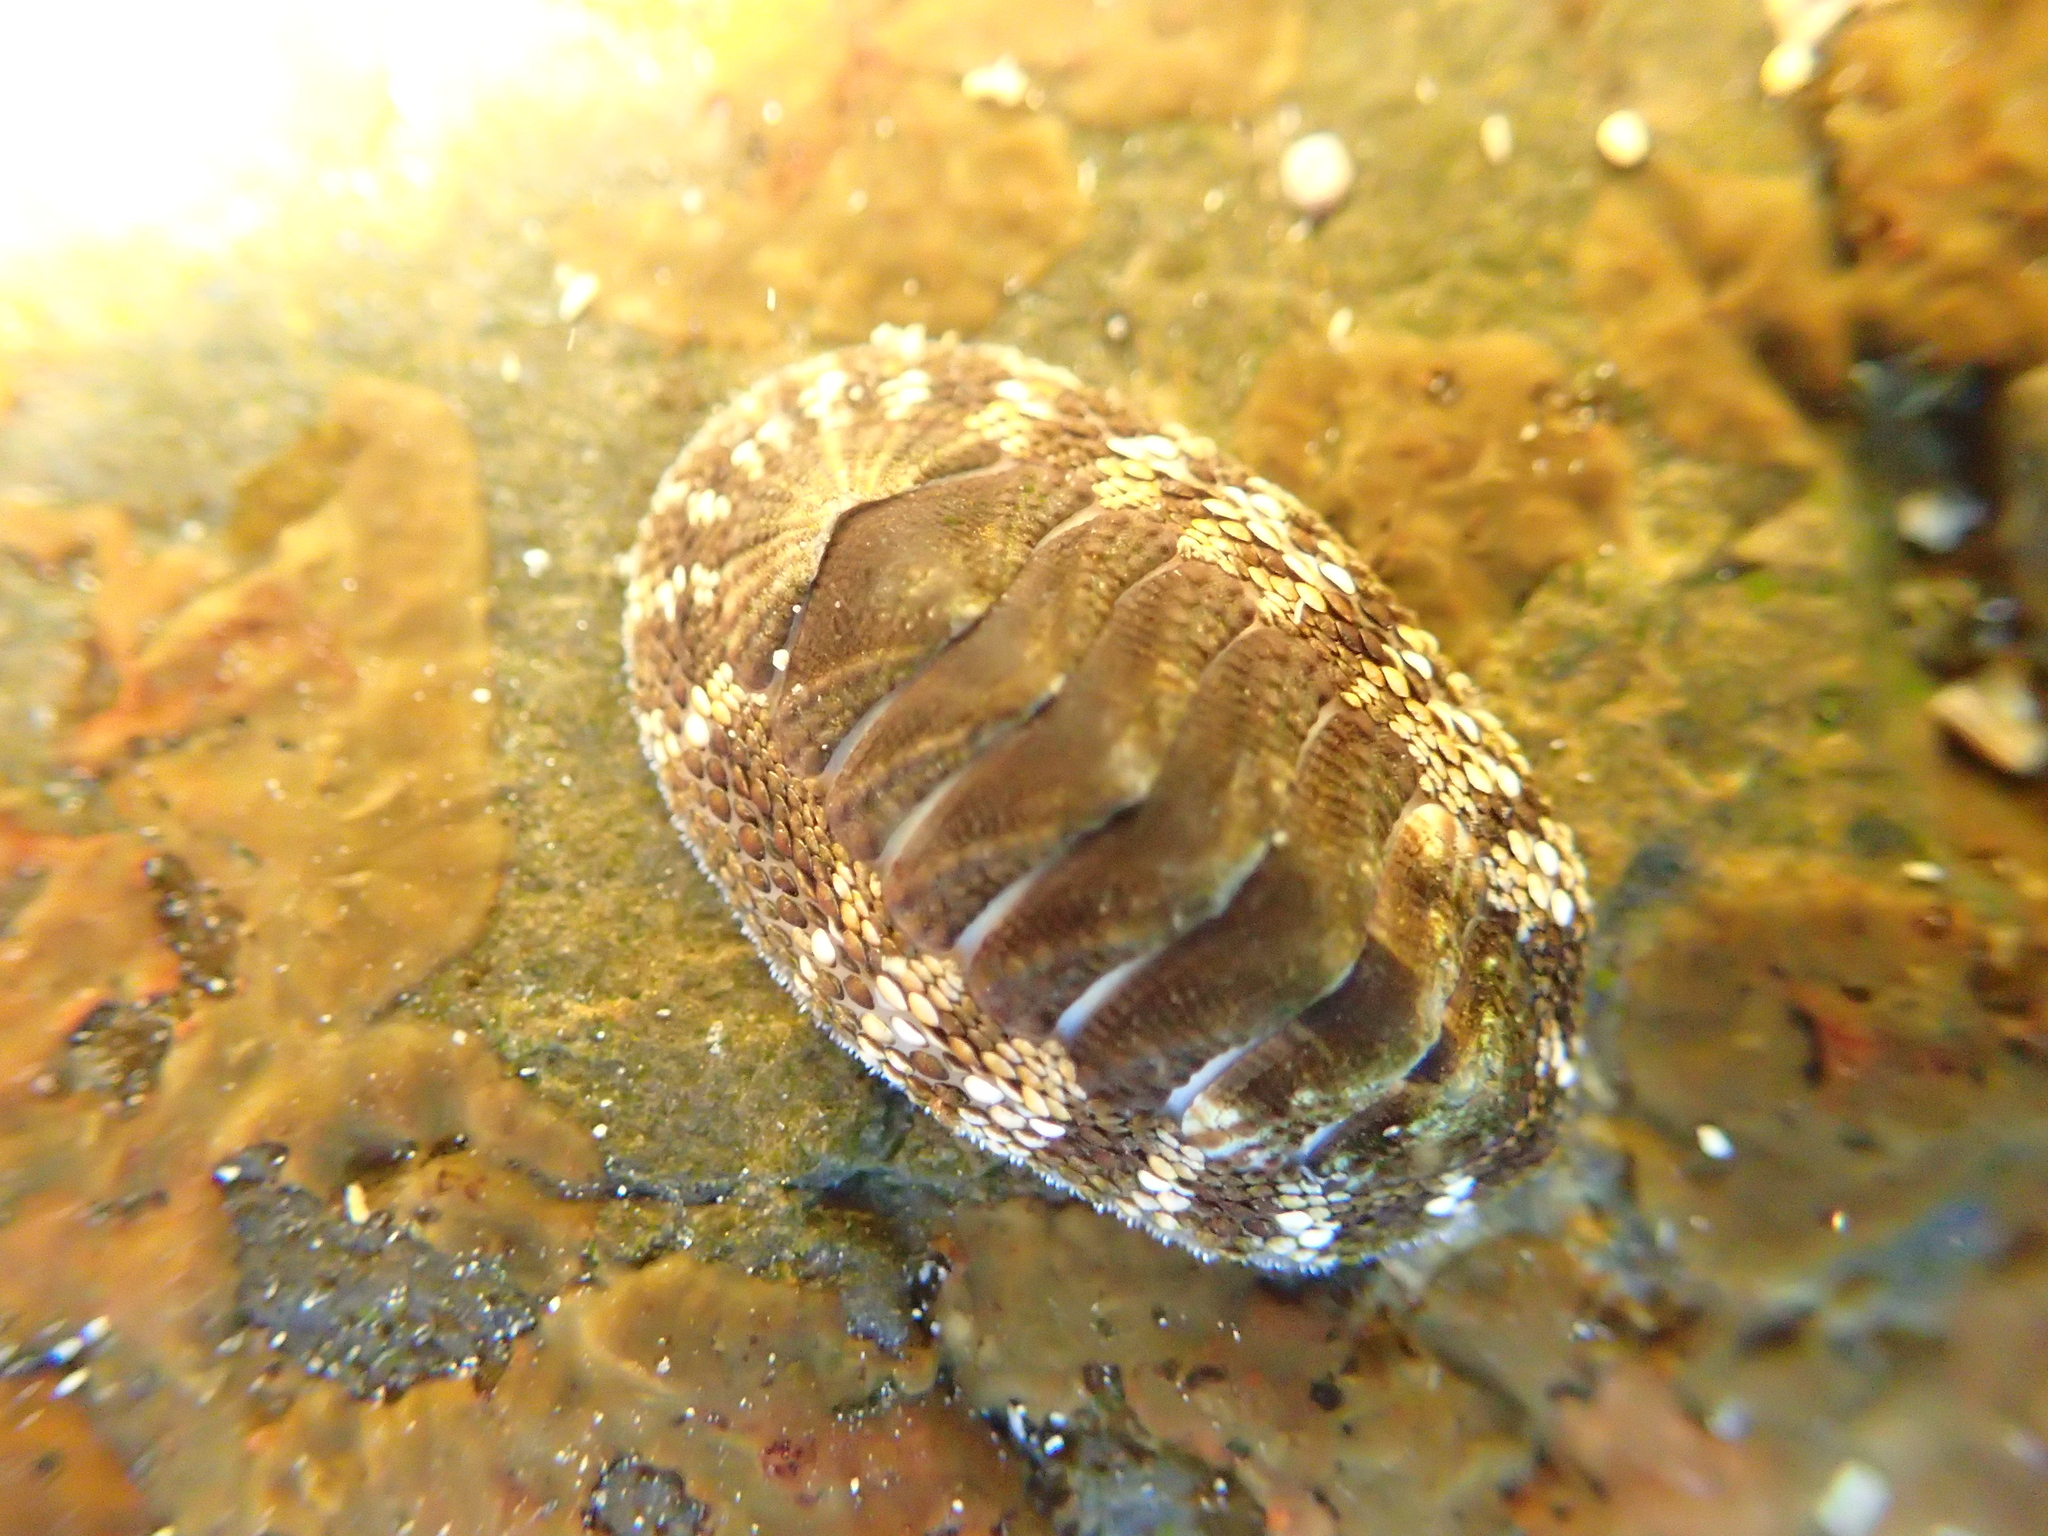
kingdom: Animalia
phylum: Mollusca
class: Polyplacophora
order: Chitonida
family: Chitonidae
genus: Sypharochiton
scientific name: Sypharochiton pelliserpentis
